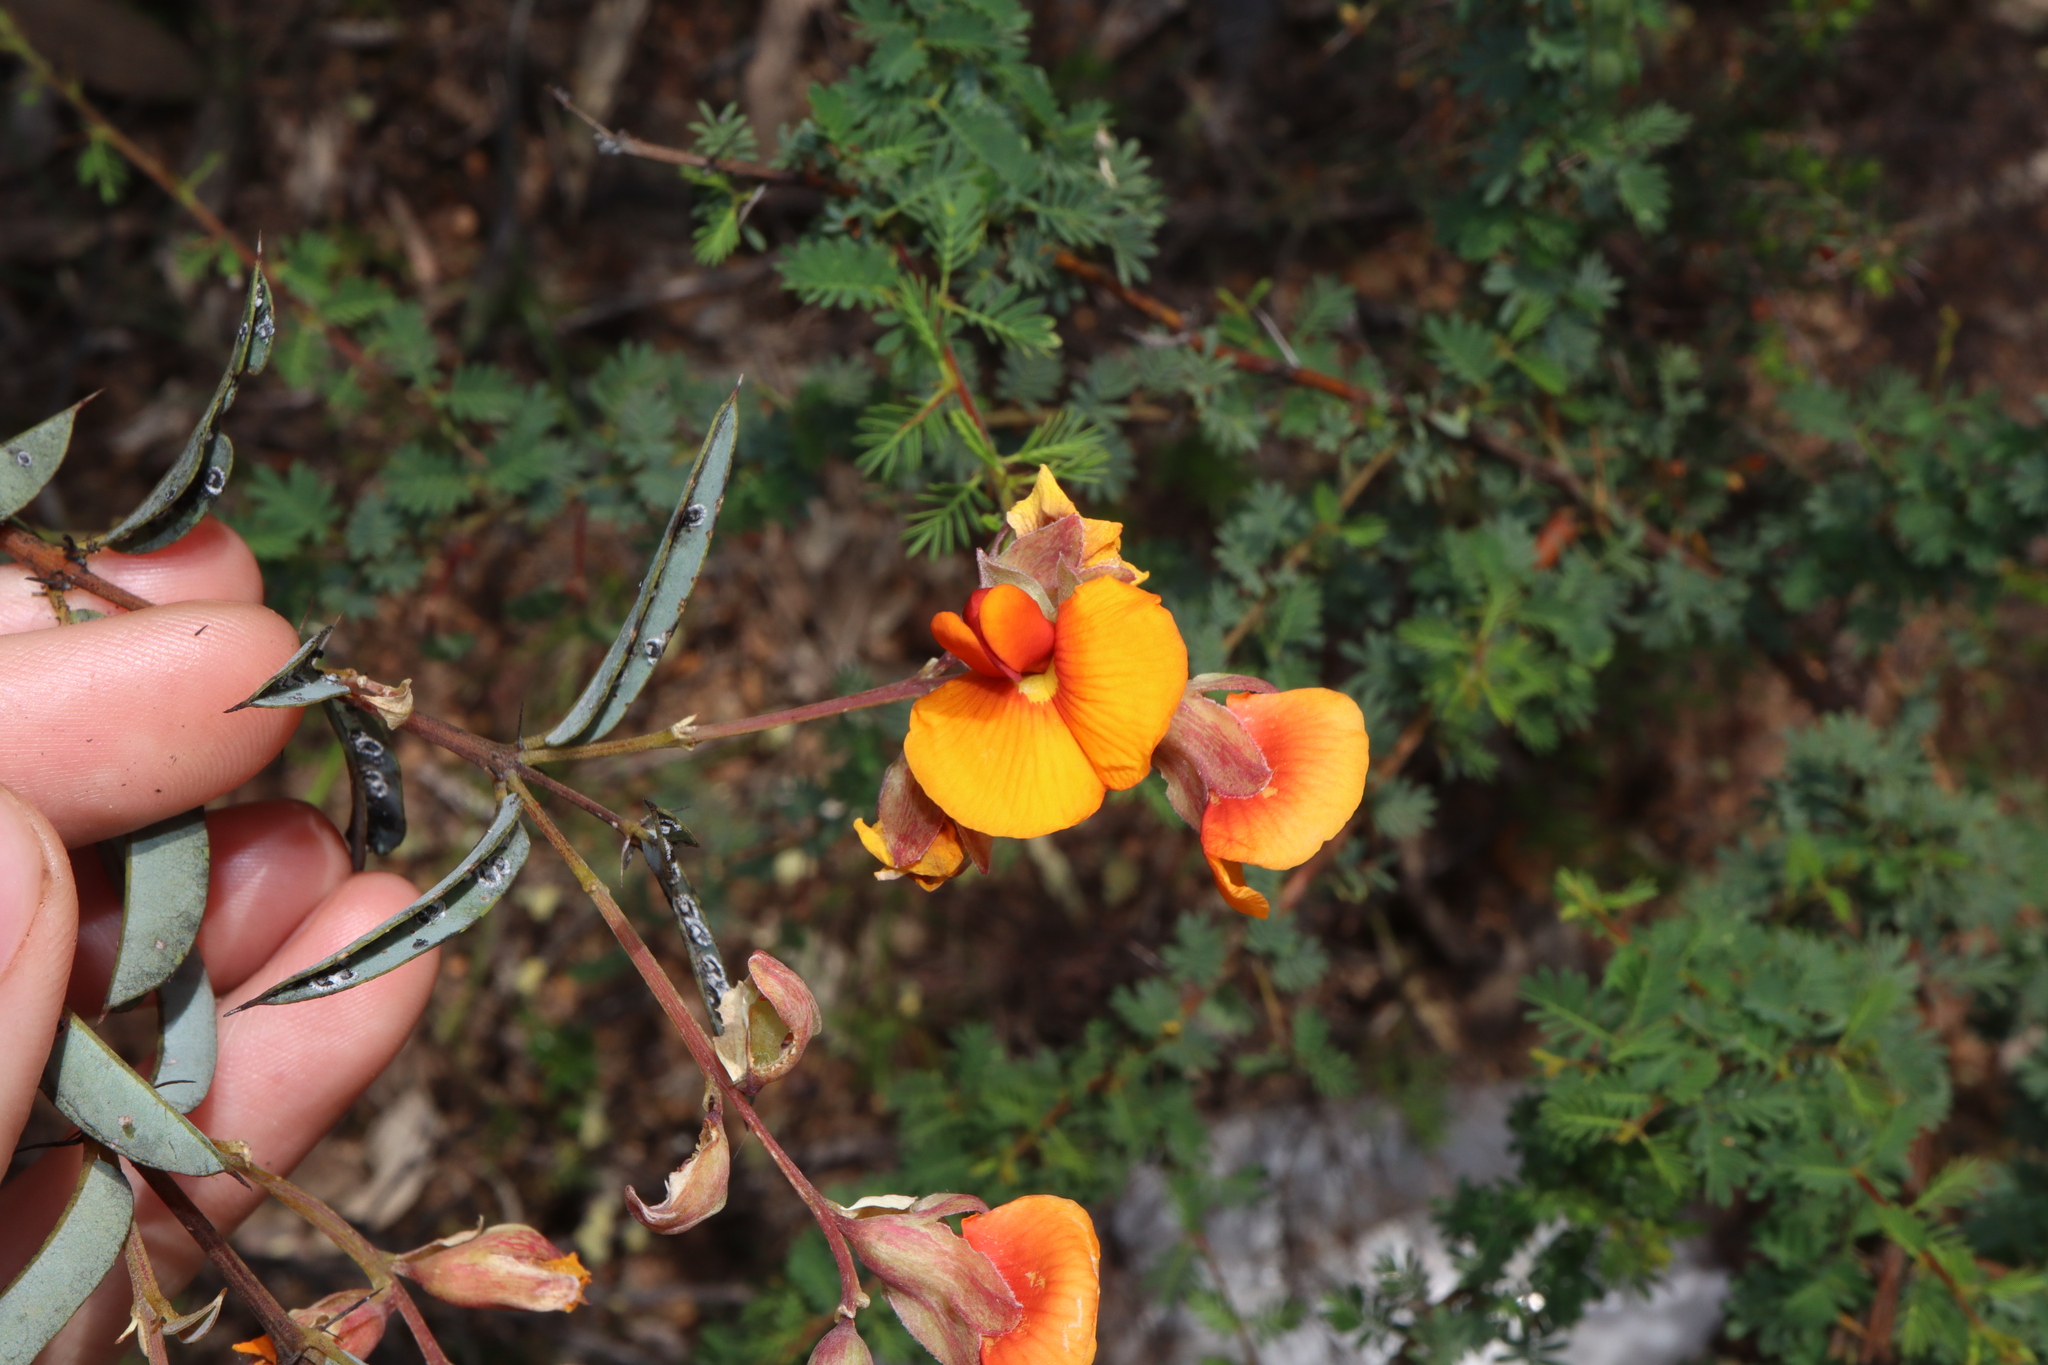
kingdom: Plantae
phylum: Tracheophyta
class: Magnoliopsida
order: Fabales
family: Fabaceae
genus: Gastrolobium
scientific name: Gastrolobium calycinum
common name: York road poison
